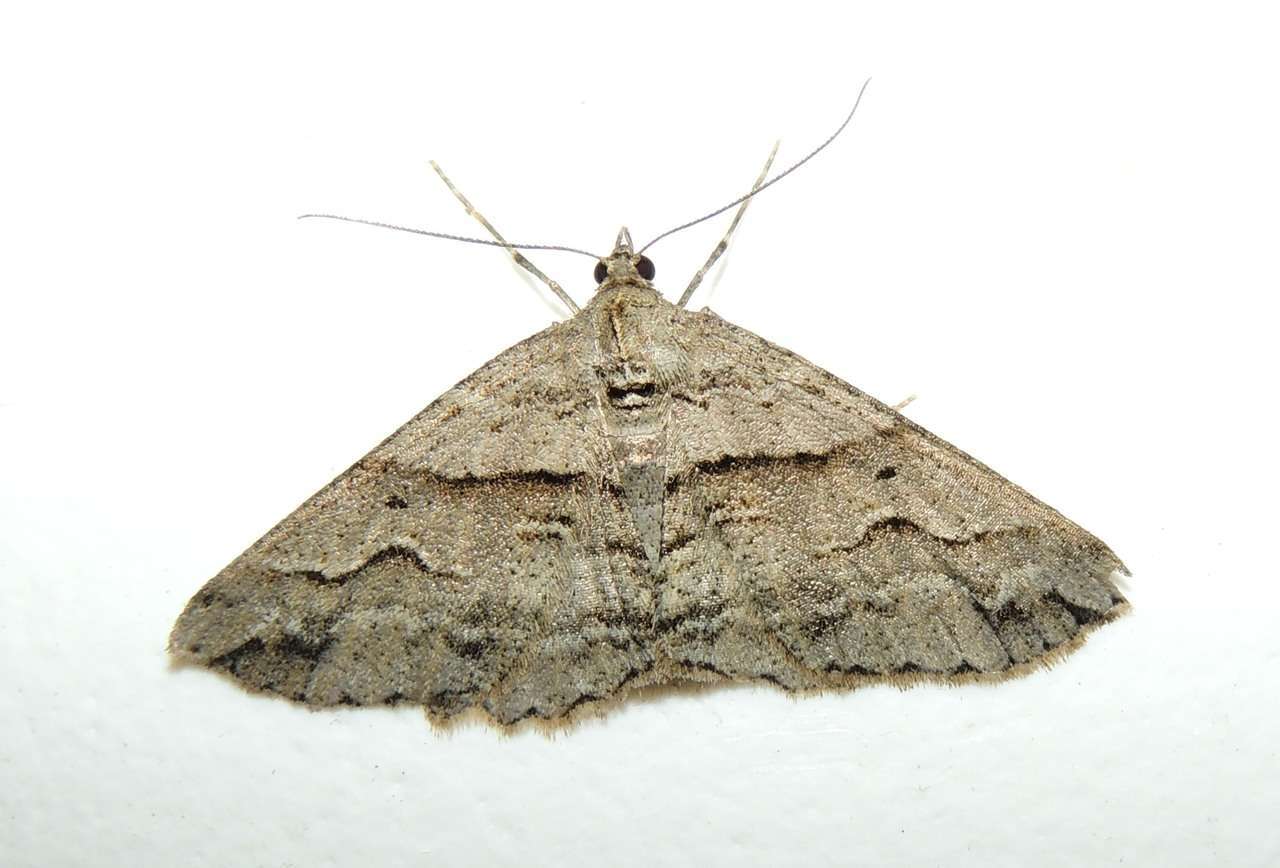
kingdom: Animalia
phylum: Arthropoda
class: Insecta
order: Lepidoptera
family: Geometridae
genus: Syneora
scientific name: Syneora fractata
